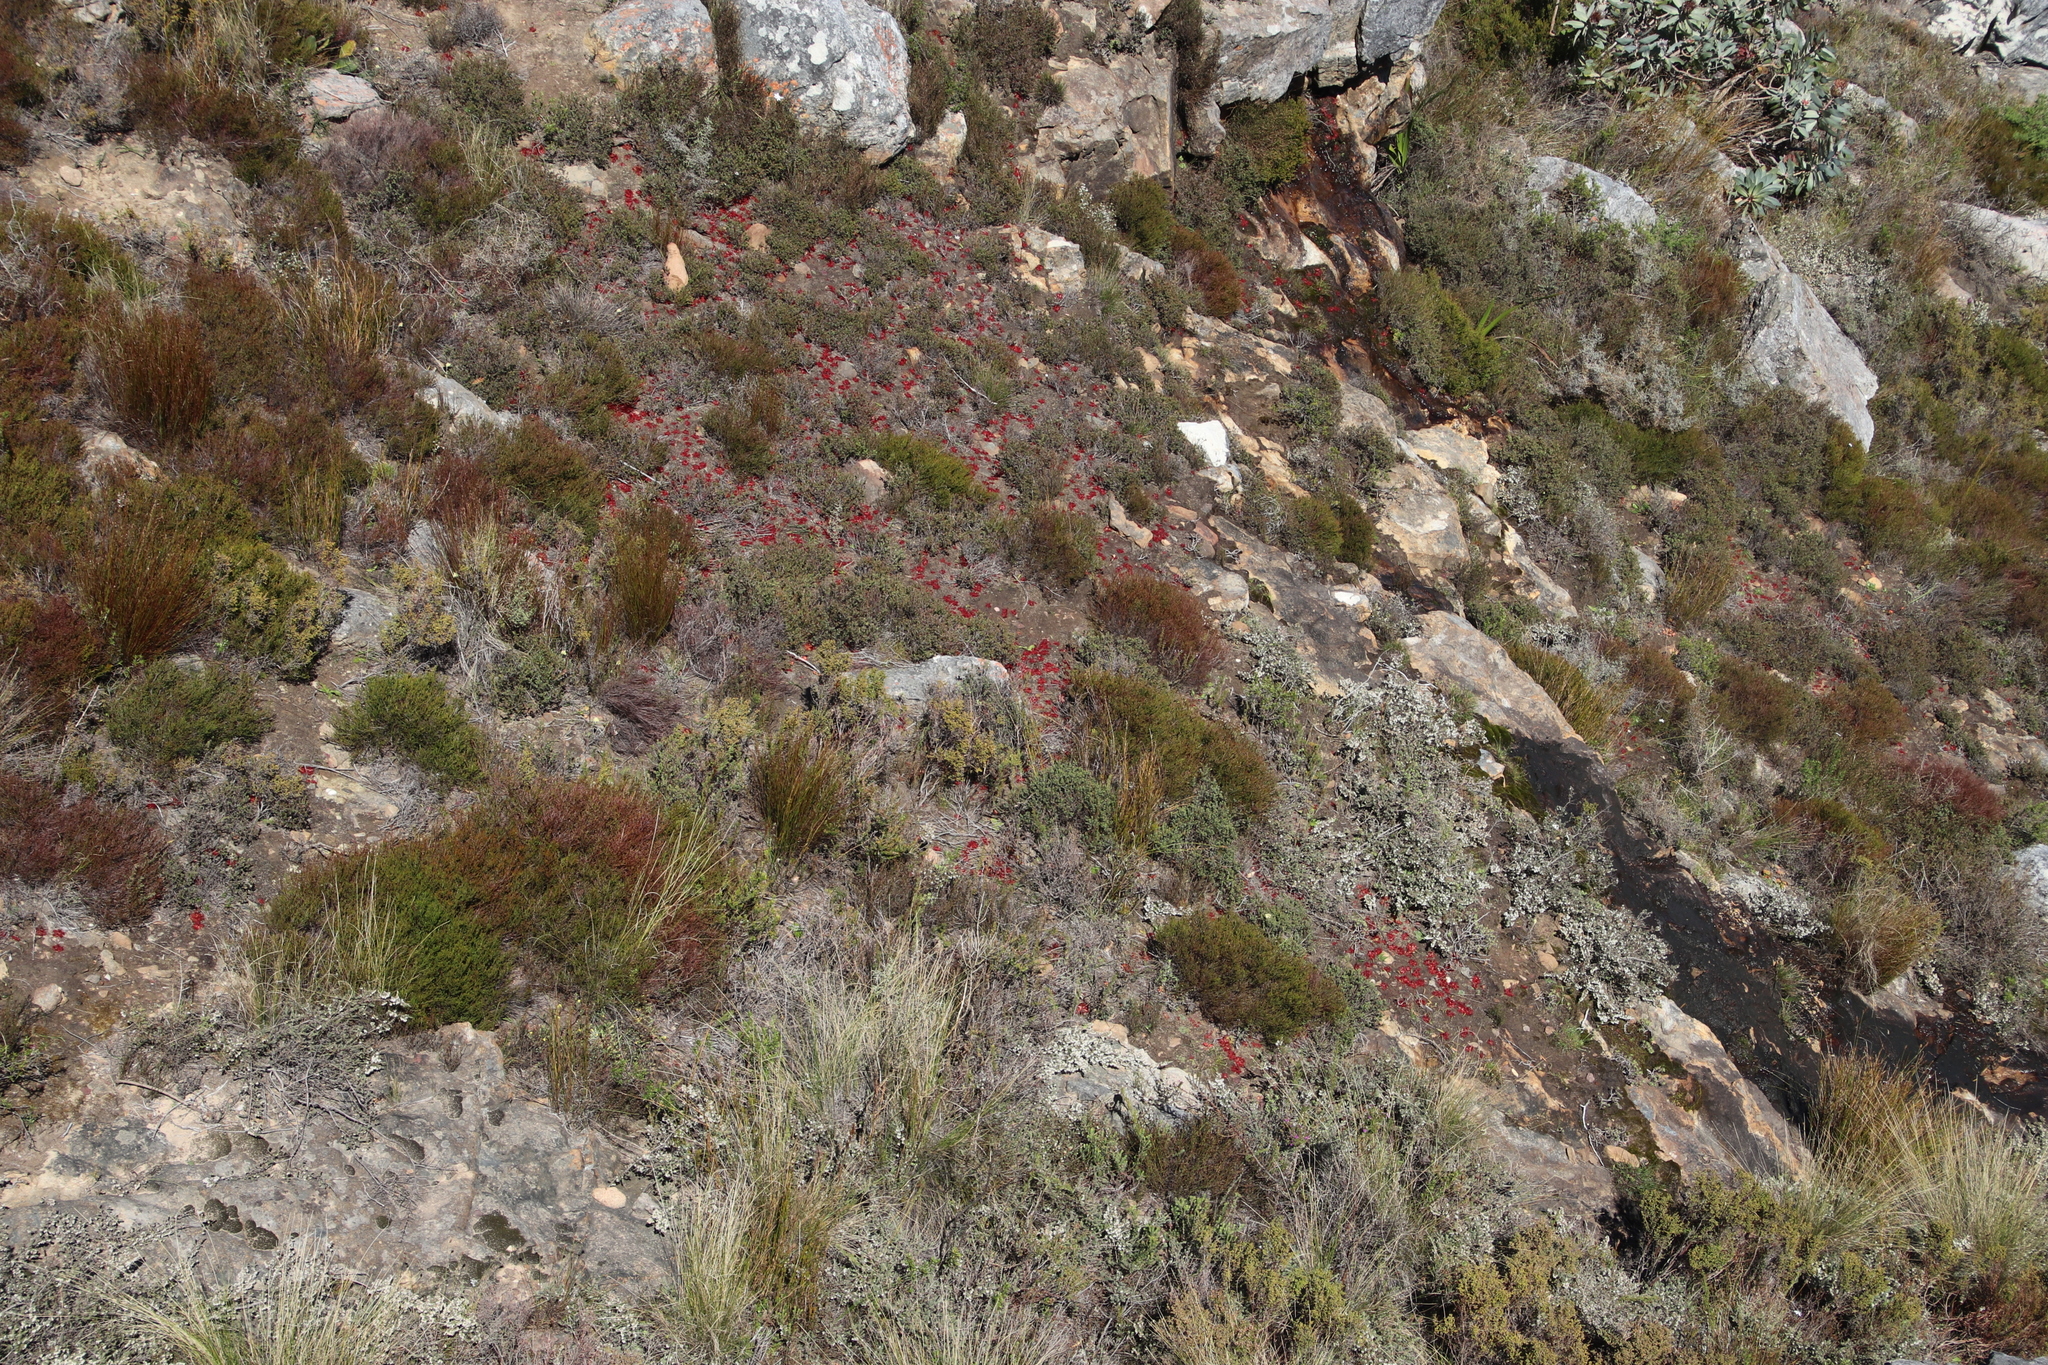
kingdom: Plantae
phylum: Tracheophyta
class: Magnoliopsida
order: Caryophyllales
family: Droseraceae
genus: Drosera
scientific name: Drosera trinervia
